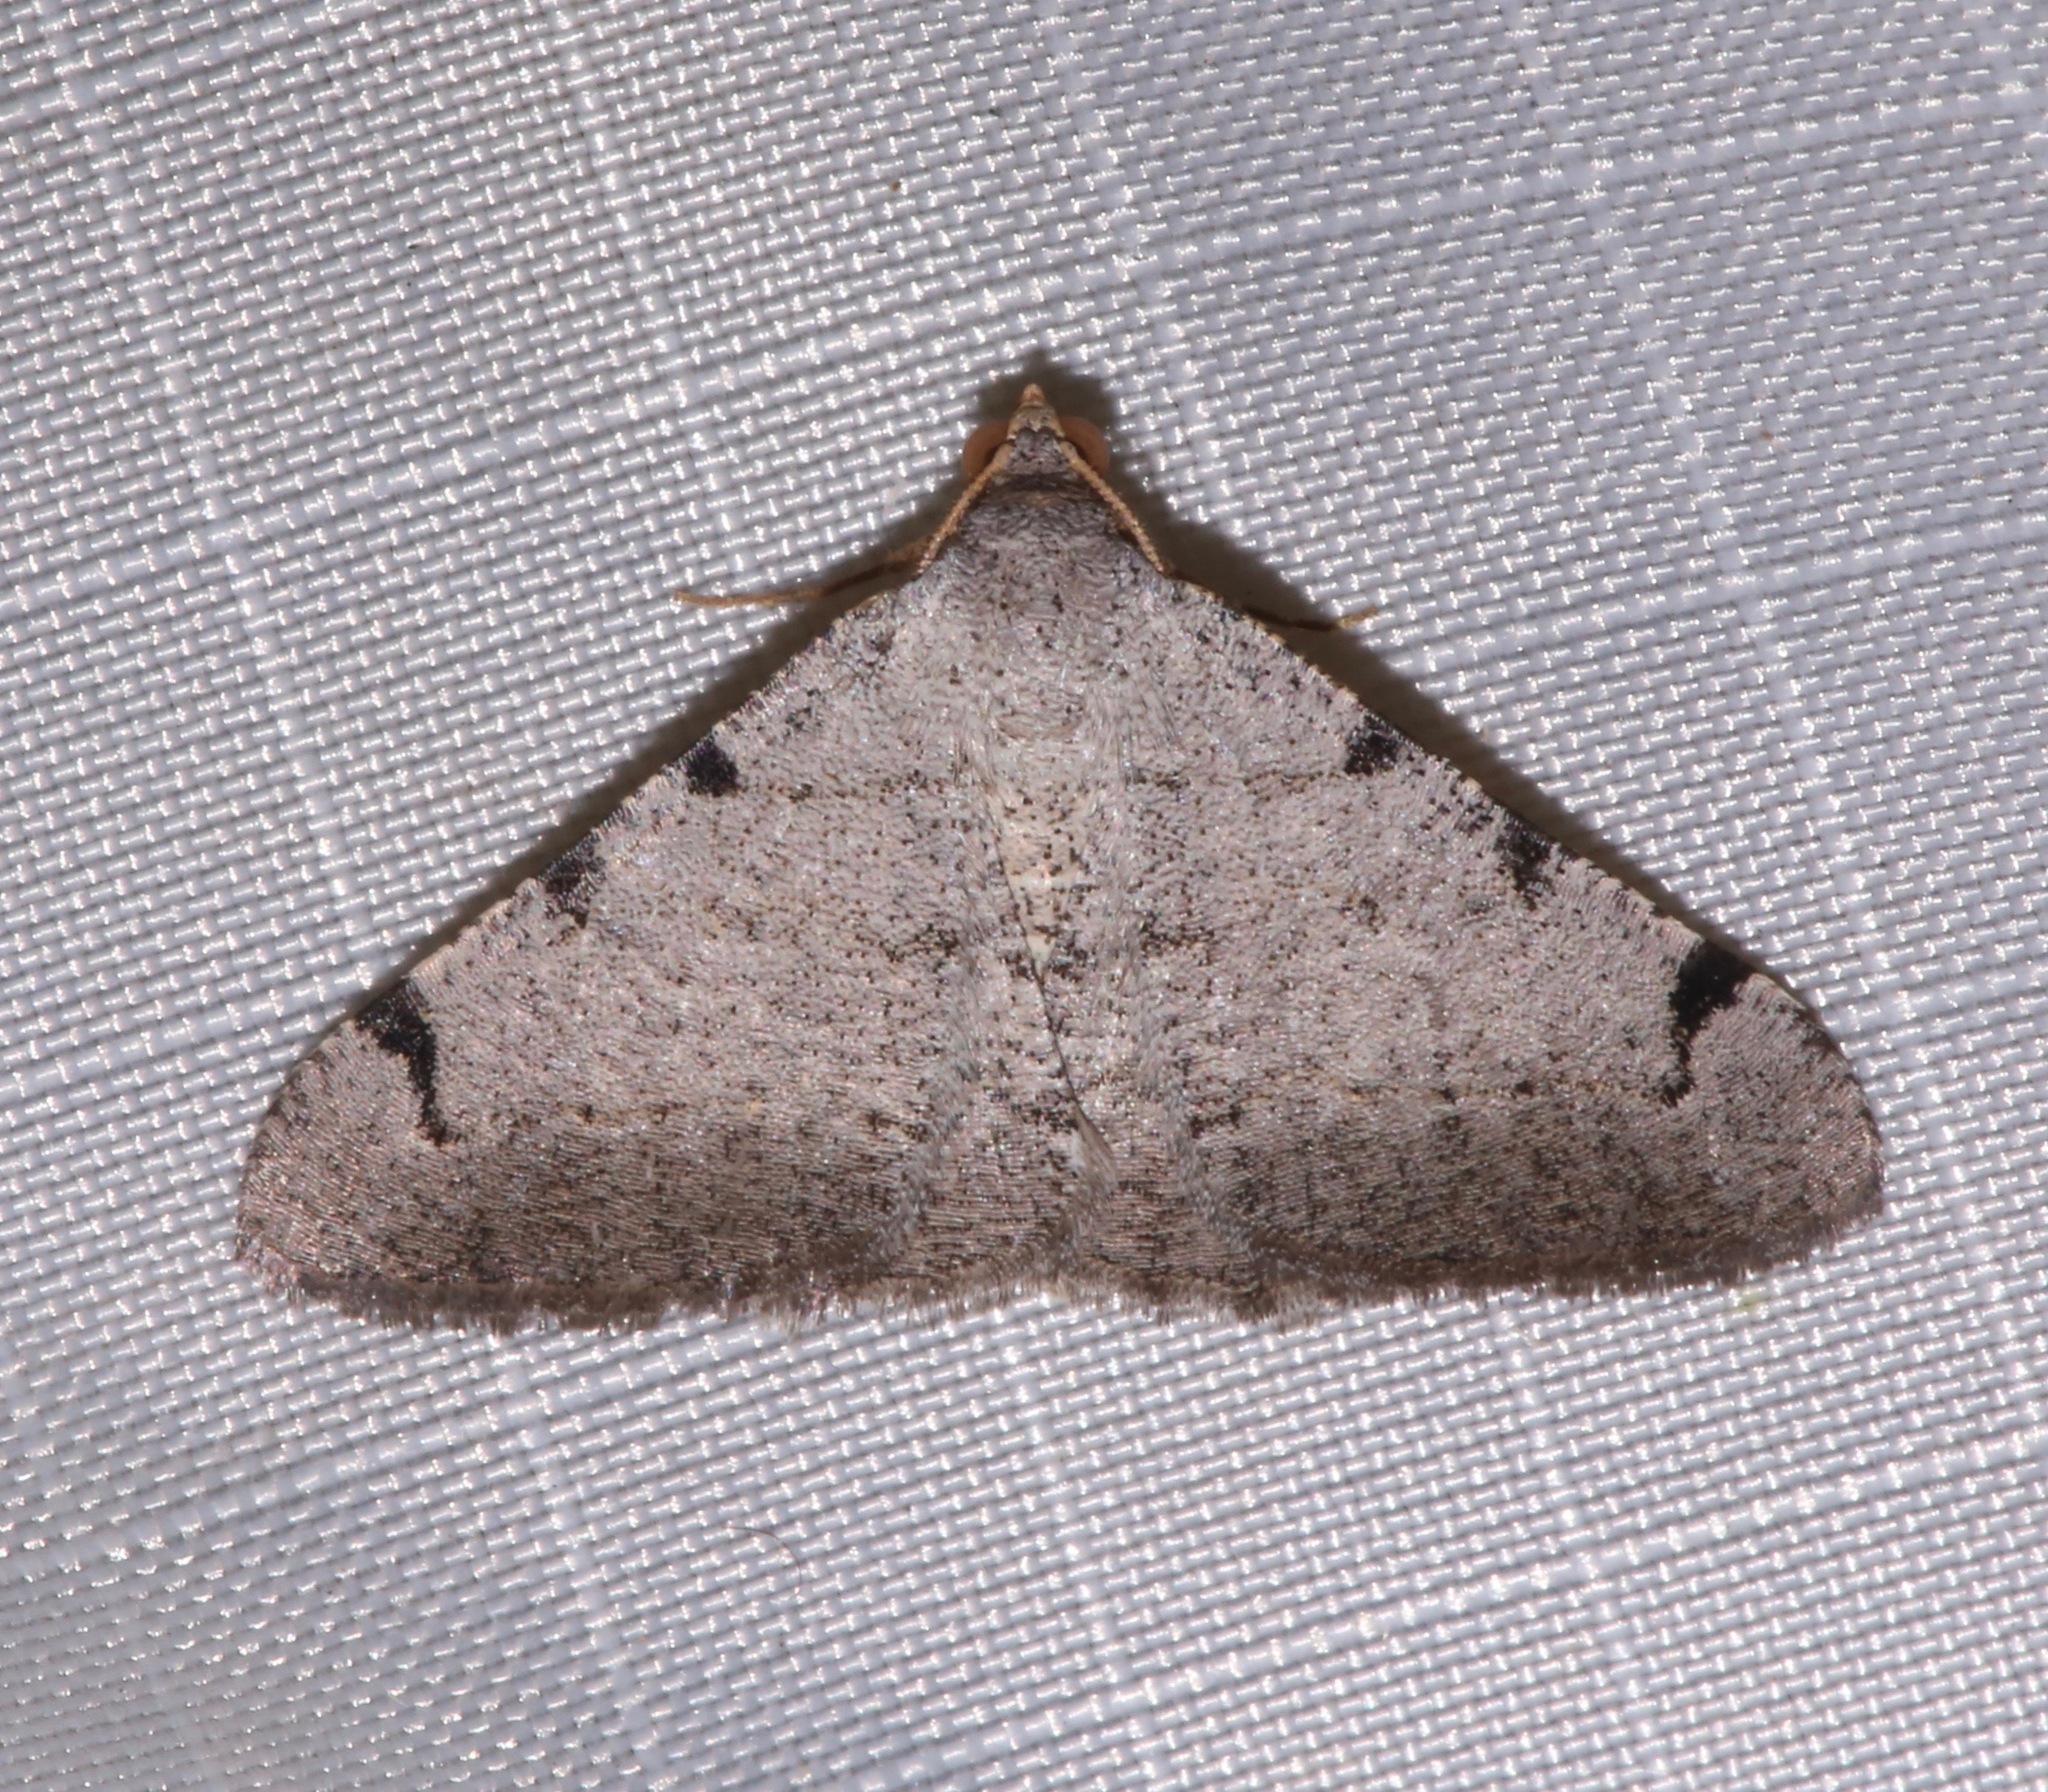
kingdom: Animalia
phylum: Arthropoda
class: Insecta
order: Lepidoptera
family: Geometridae
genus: Digrammia
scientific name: Digrammia triviata
